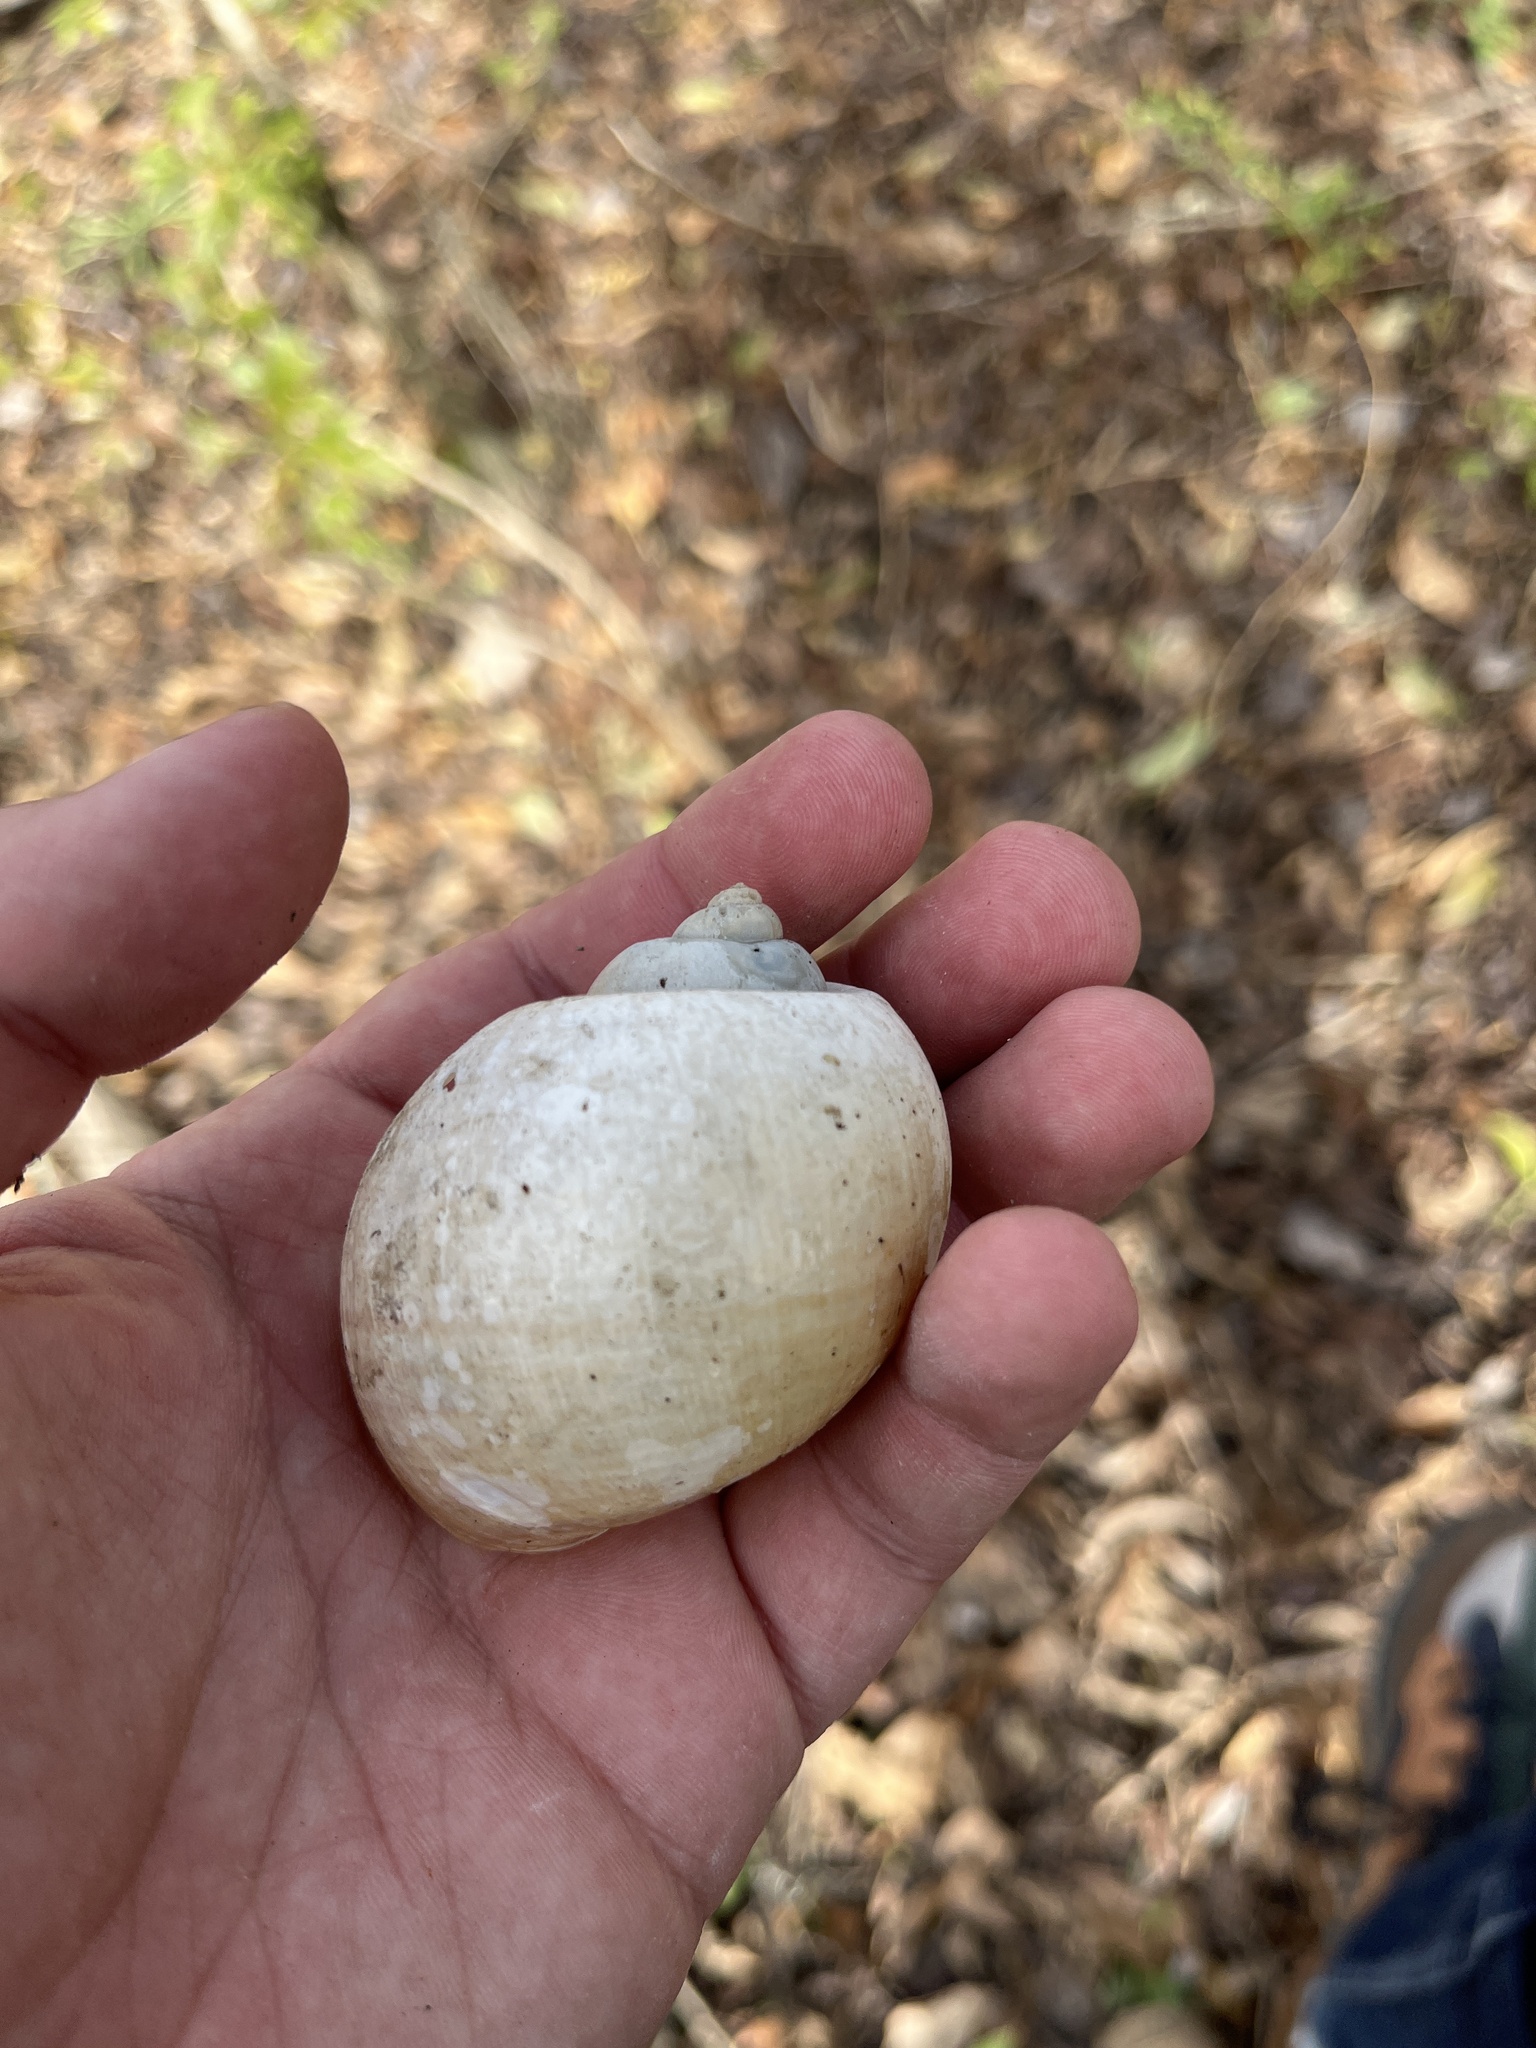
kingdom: Animalia
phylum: Mollusca
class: Gastropoda
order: Architaenioglossa
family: Ampullariidae
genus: Pomacea
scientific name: Pomacea maculata
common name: Giant applesnail
